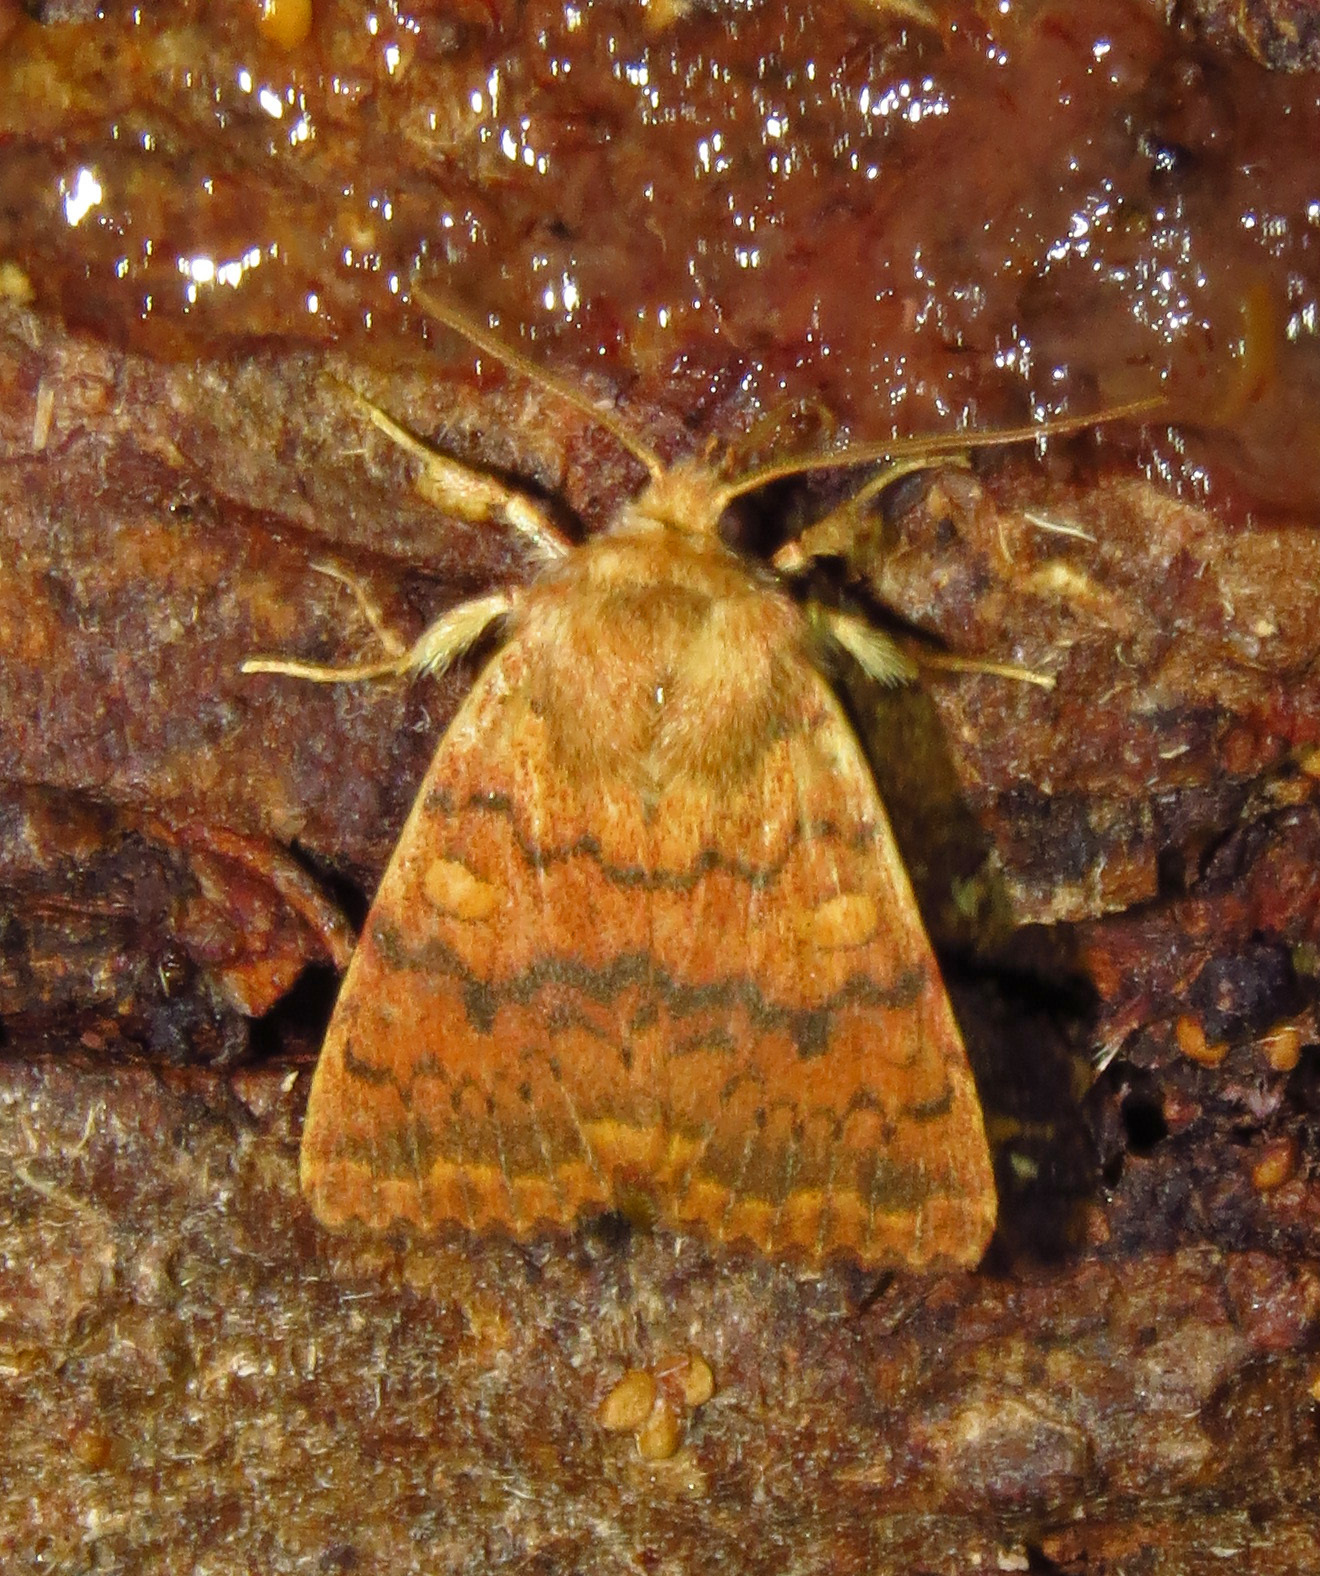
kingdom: Animalia
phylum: Arthropoda
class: Insecta
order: Lepidoptera
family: Noctuidae
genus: Agrochola
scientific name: Agrochola bicolorago
